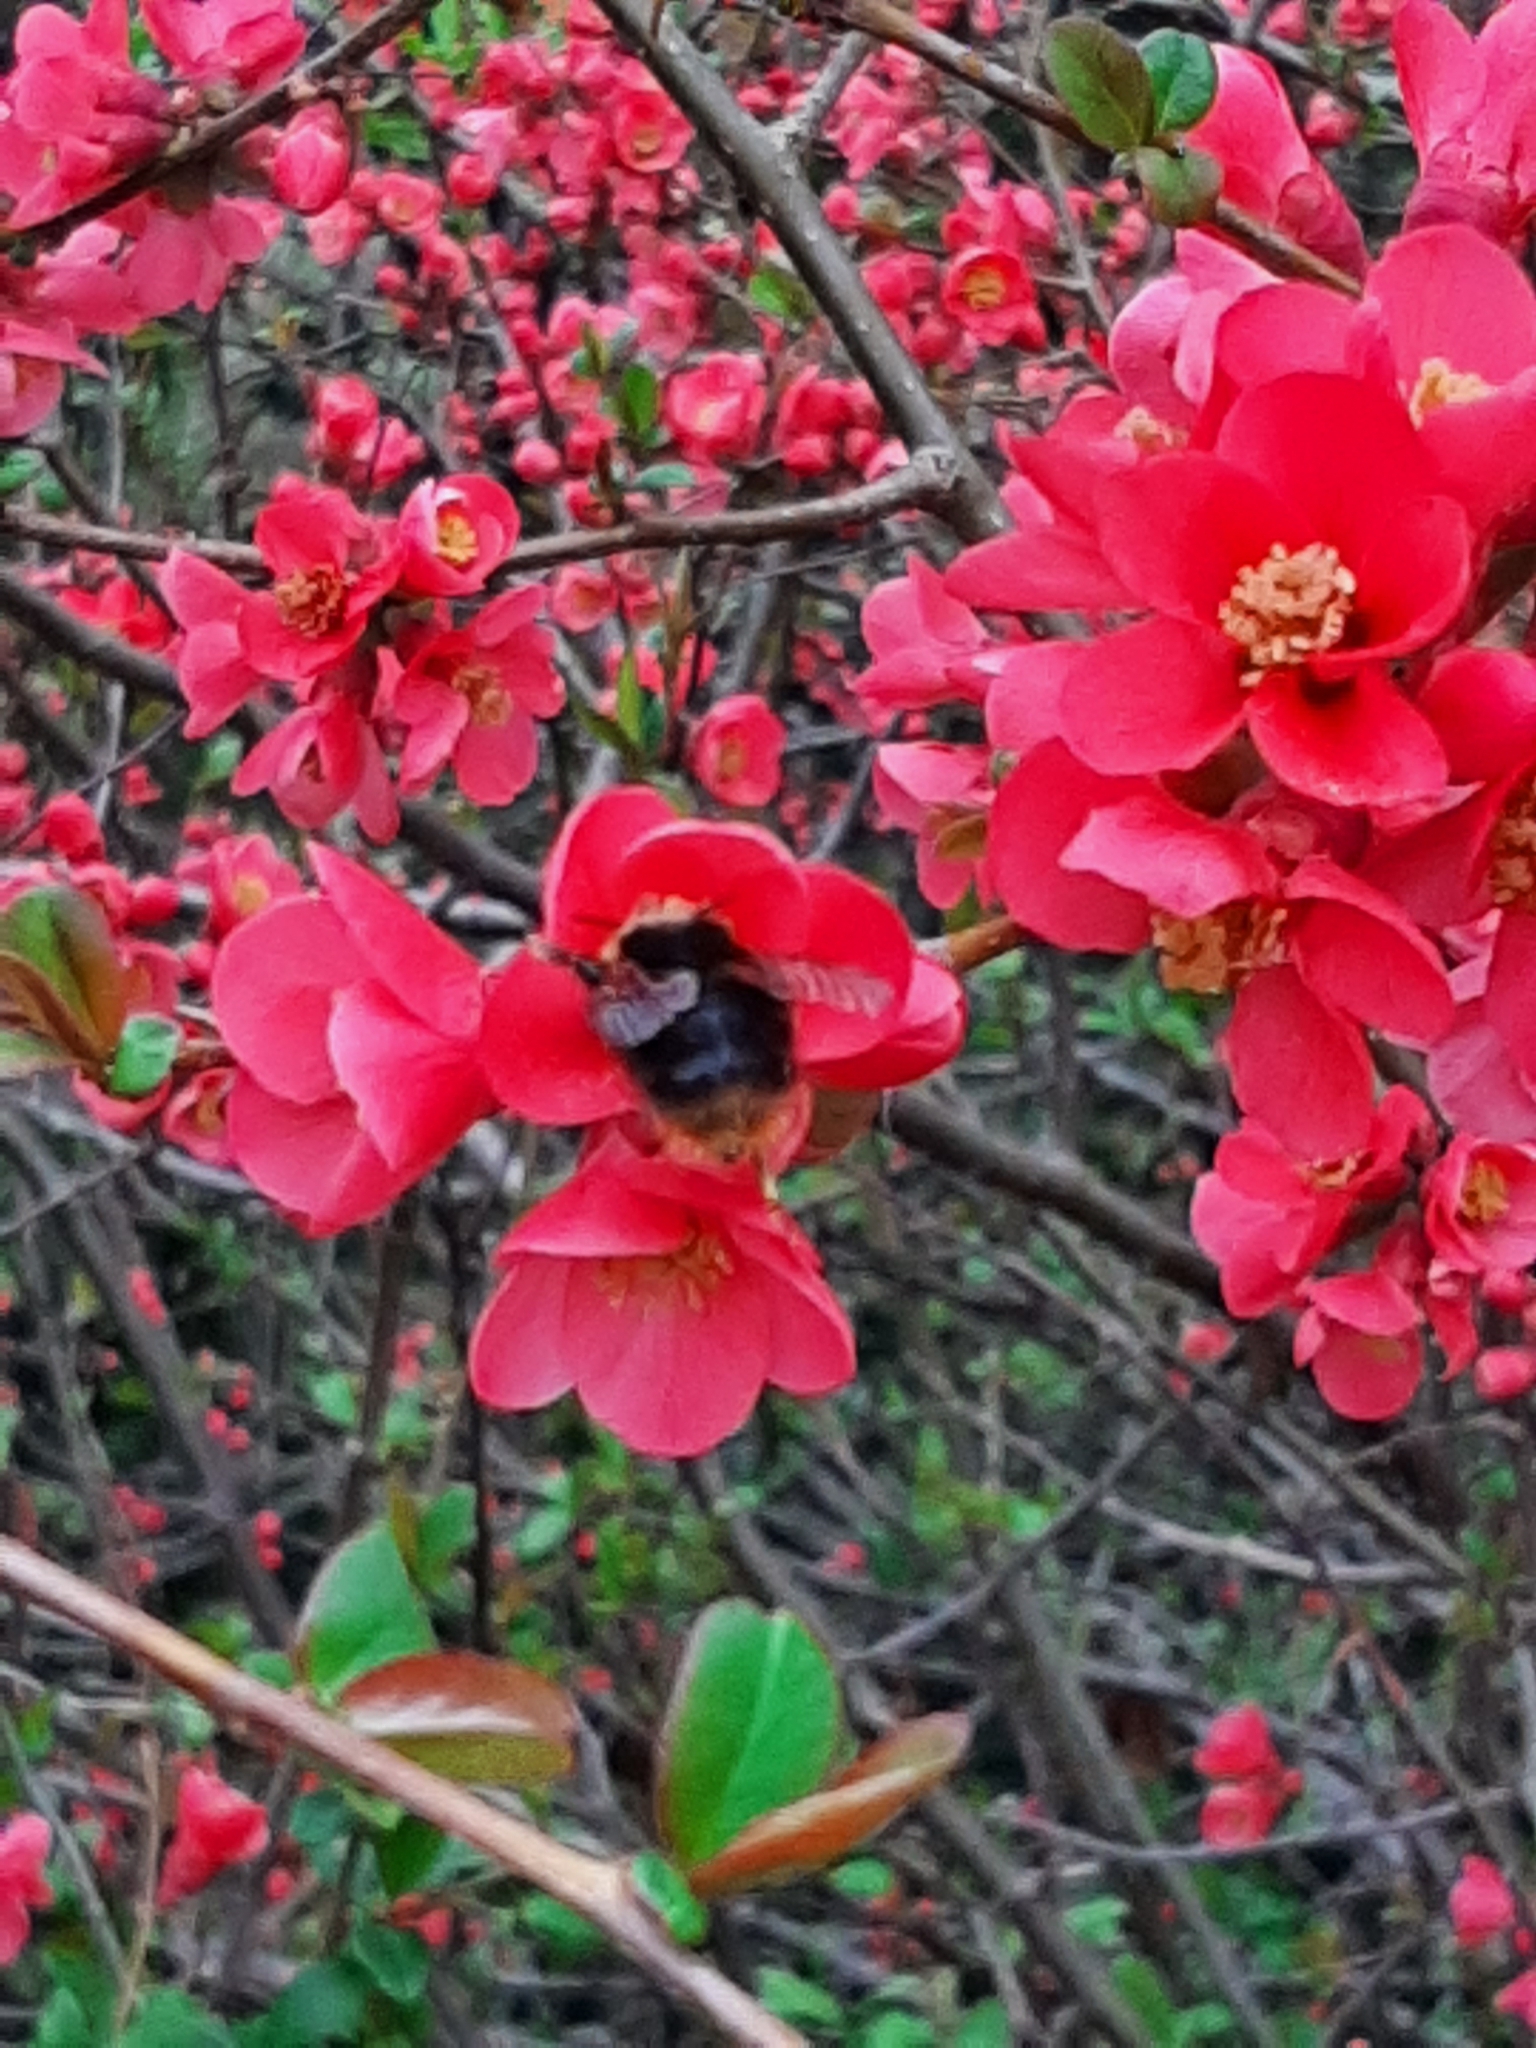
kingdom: Animalia
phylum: Arthropoda
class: Insecta
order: Hymenoptera
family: Apidae
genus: Bombus
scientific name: Bombus pratorum
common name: Early humble-bee
